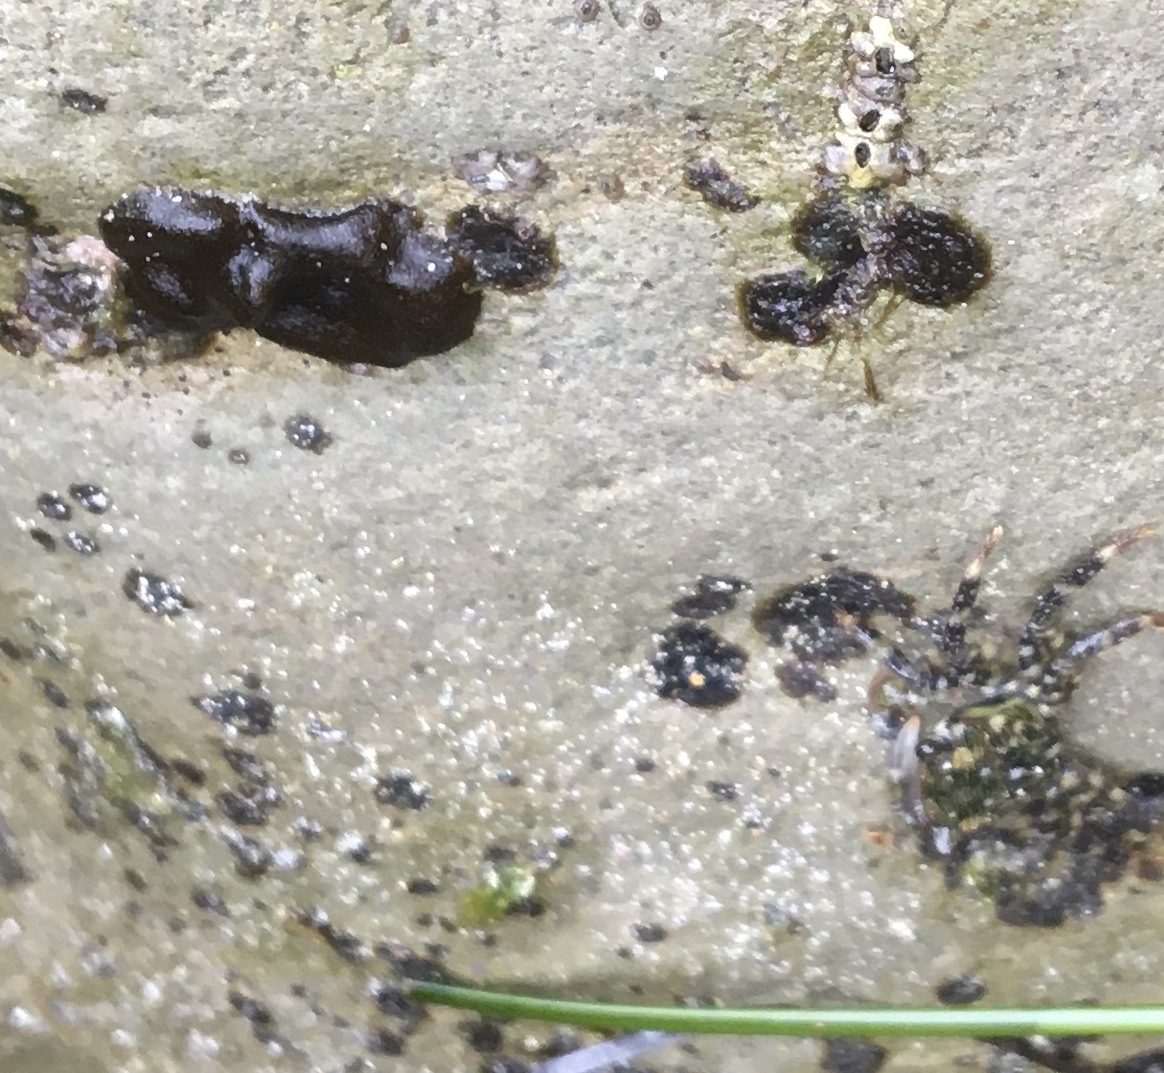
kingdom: Chromista
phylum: Ochrophyta
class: Phaeophyceae
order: Ectocarpales
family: Petrospongiaceae
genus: Petrospongium
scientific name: Petrospongium rugosum
